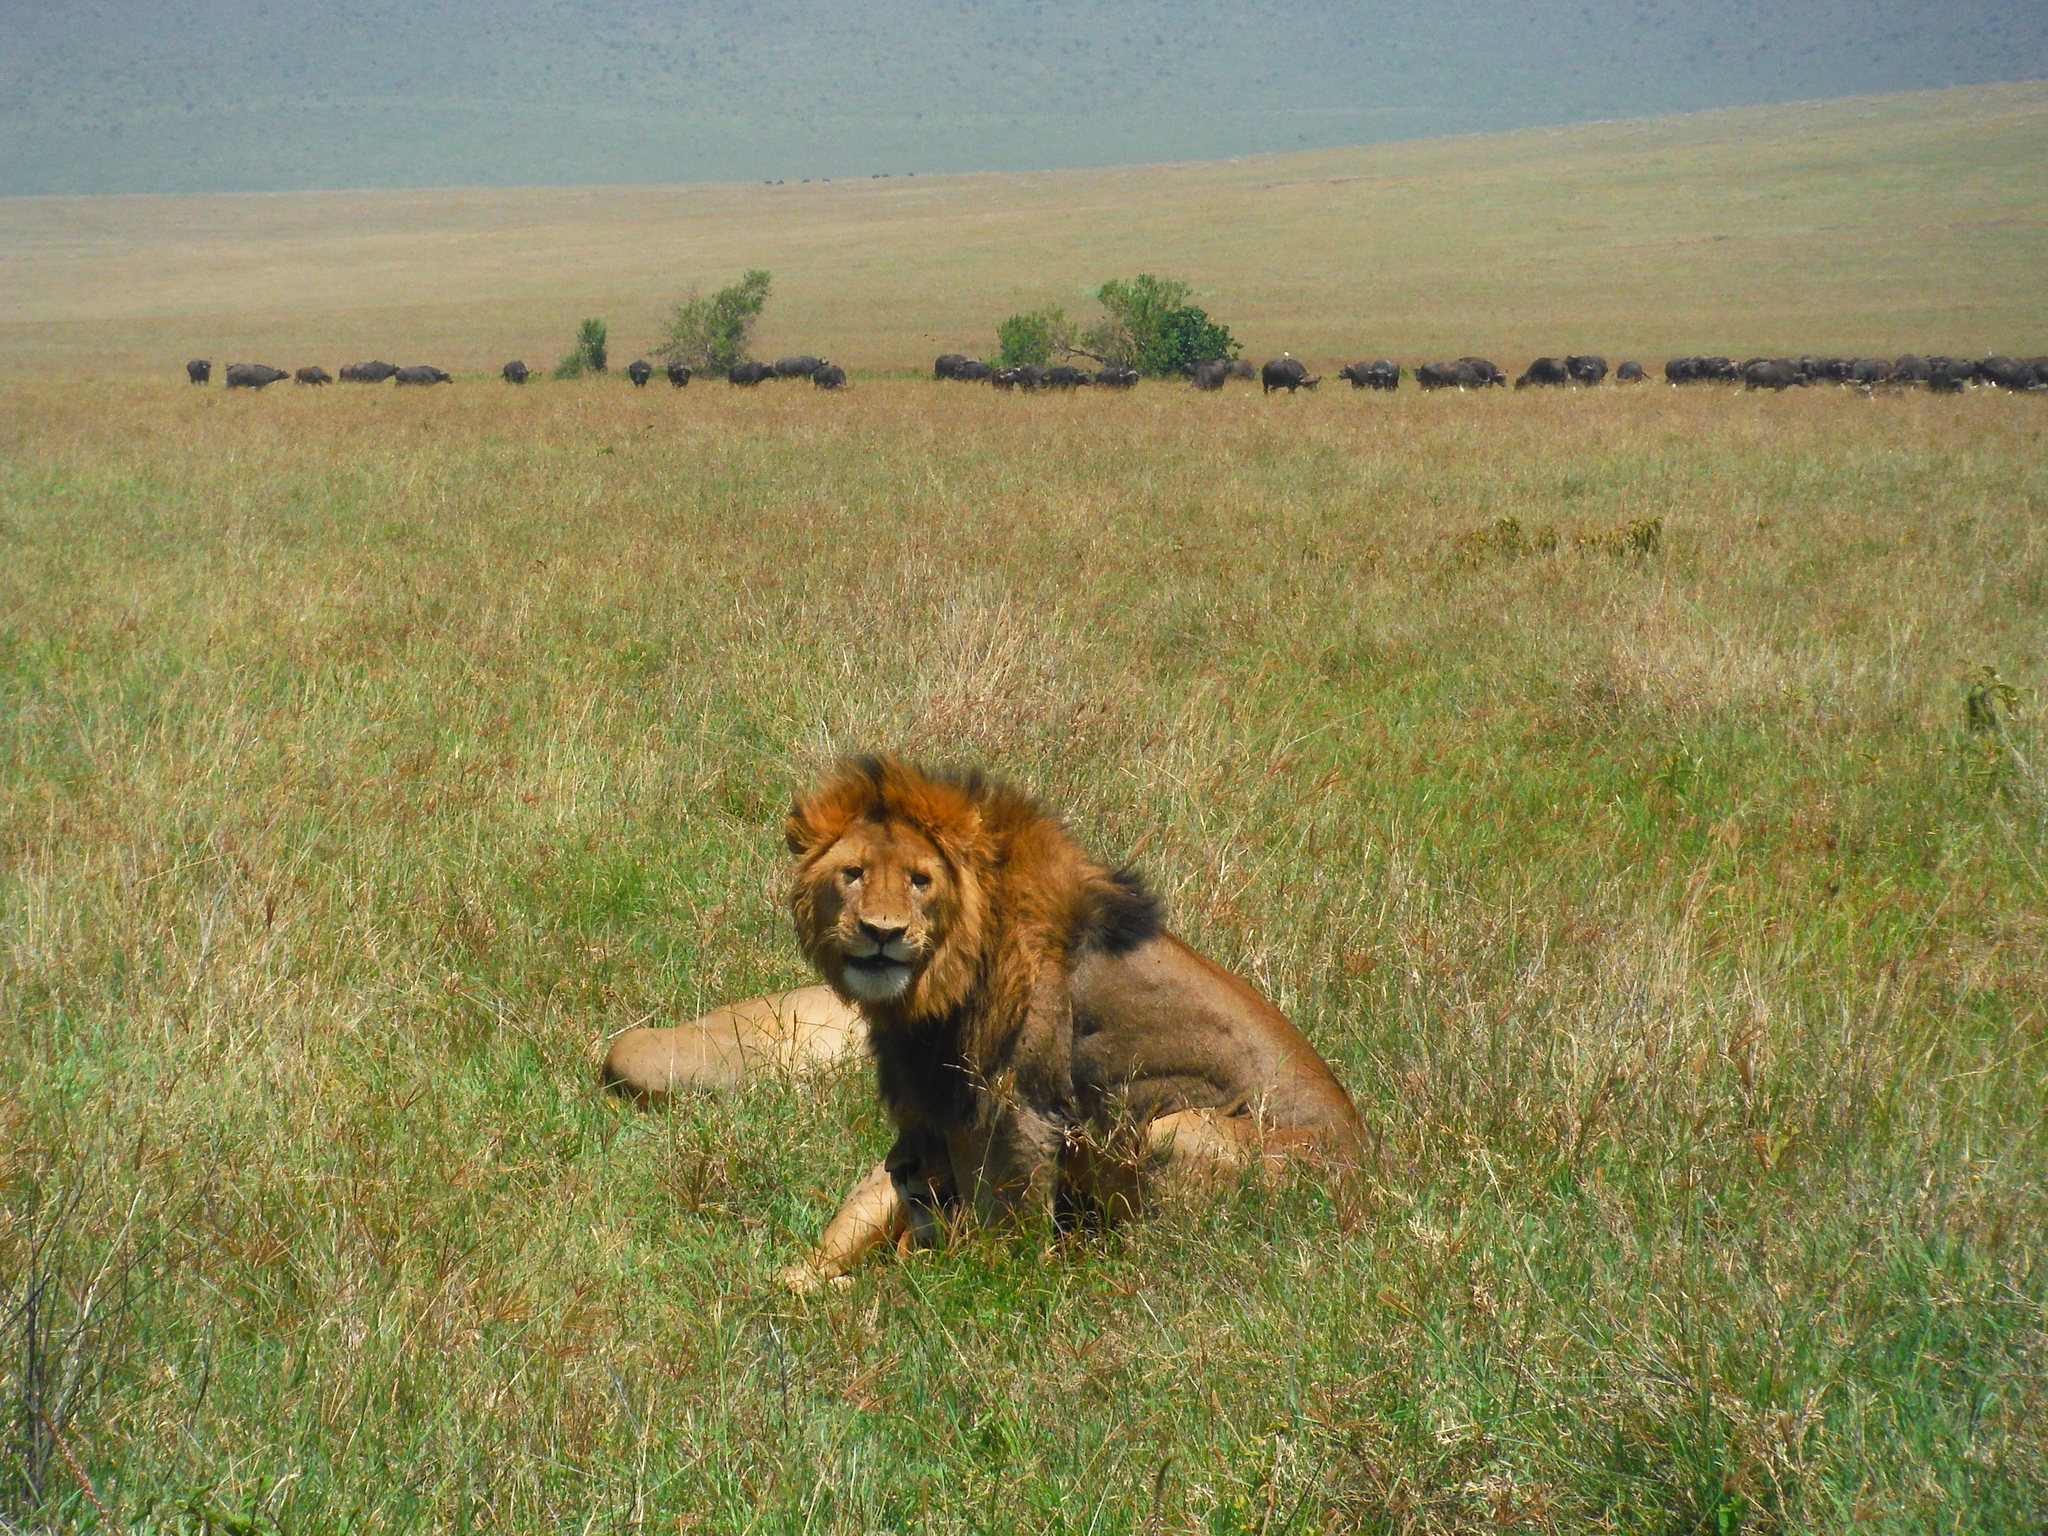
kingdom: Animalia
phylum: Chordata
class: Mammalia
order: Carnivora
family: Felidae
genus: Panthera
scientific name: Panthera leo
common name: Lion
